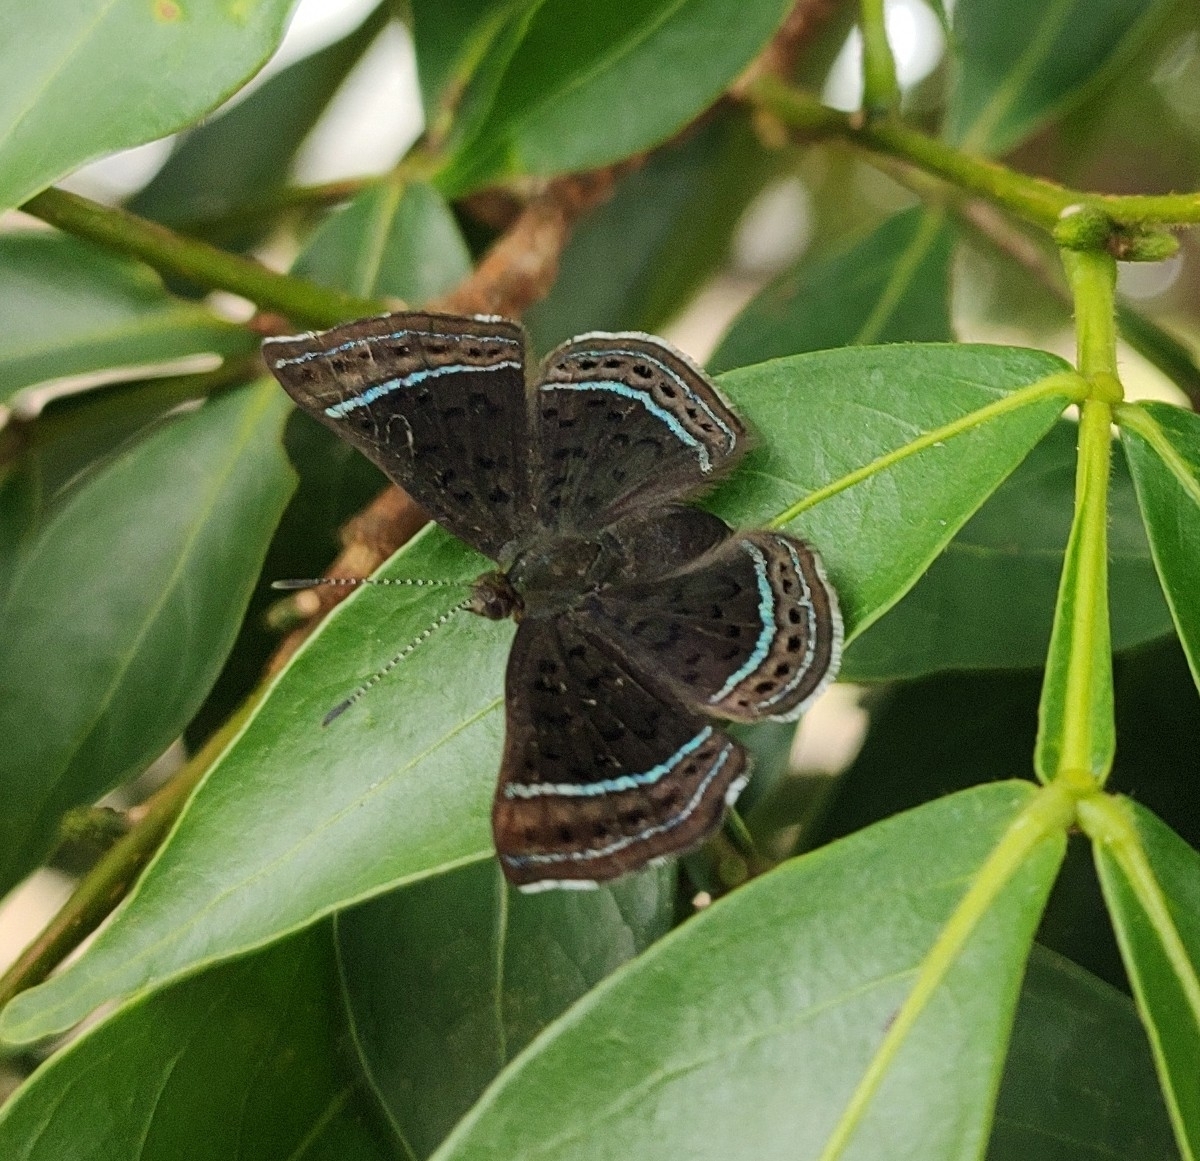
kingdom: Animalia
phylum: Arthropoda
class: Insecta
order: Lepidoptera
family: Riodinidae
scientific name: Riodinidae
